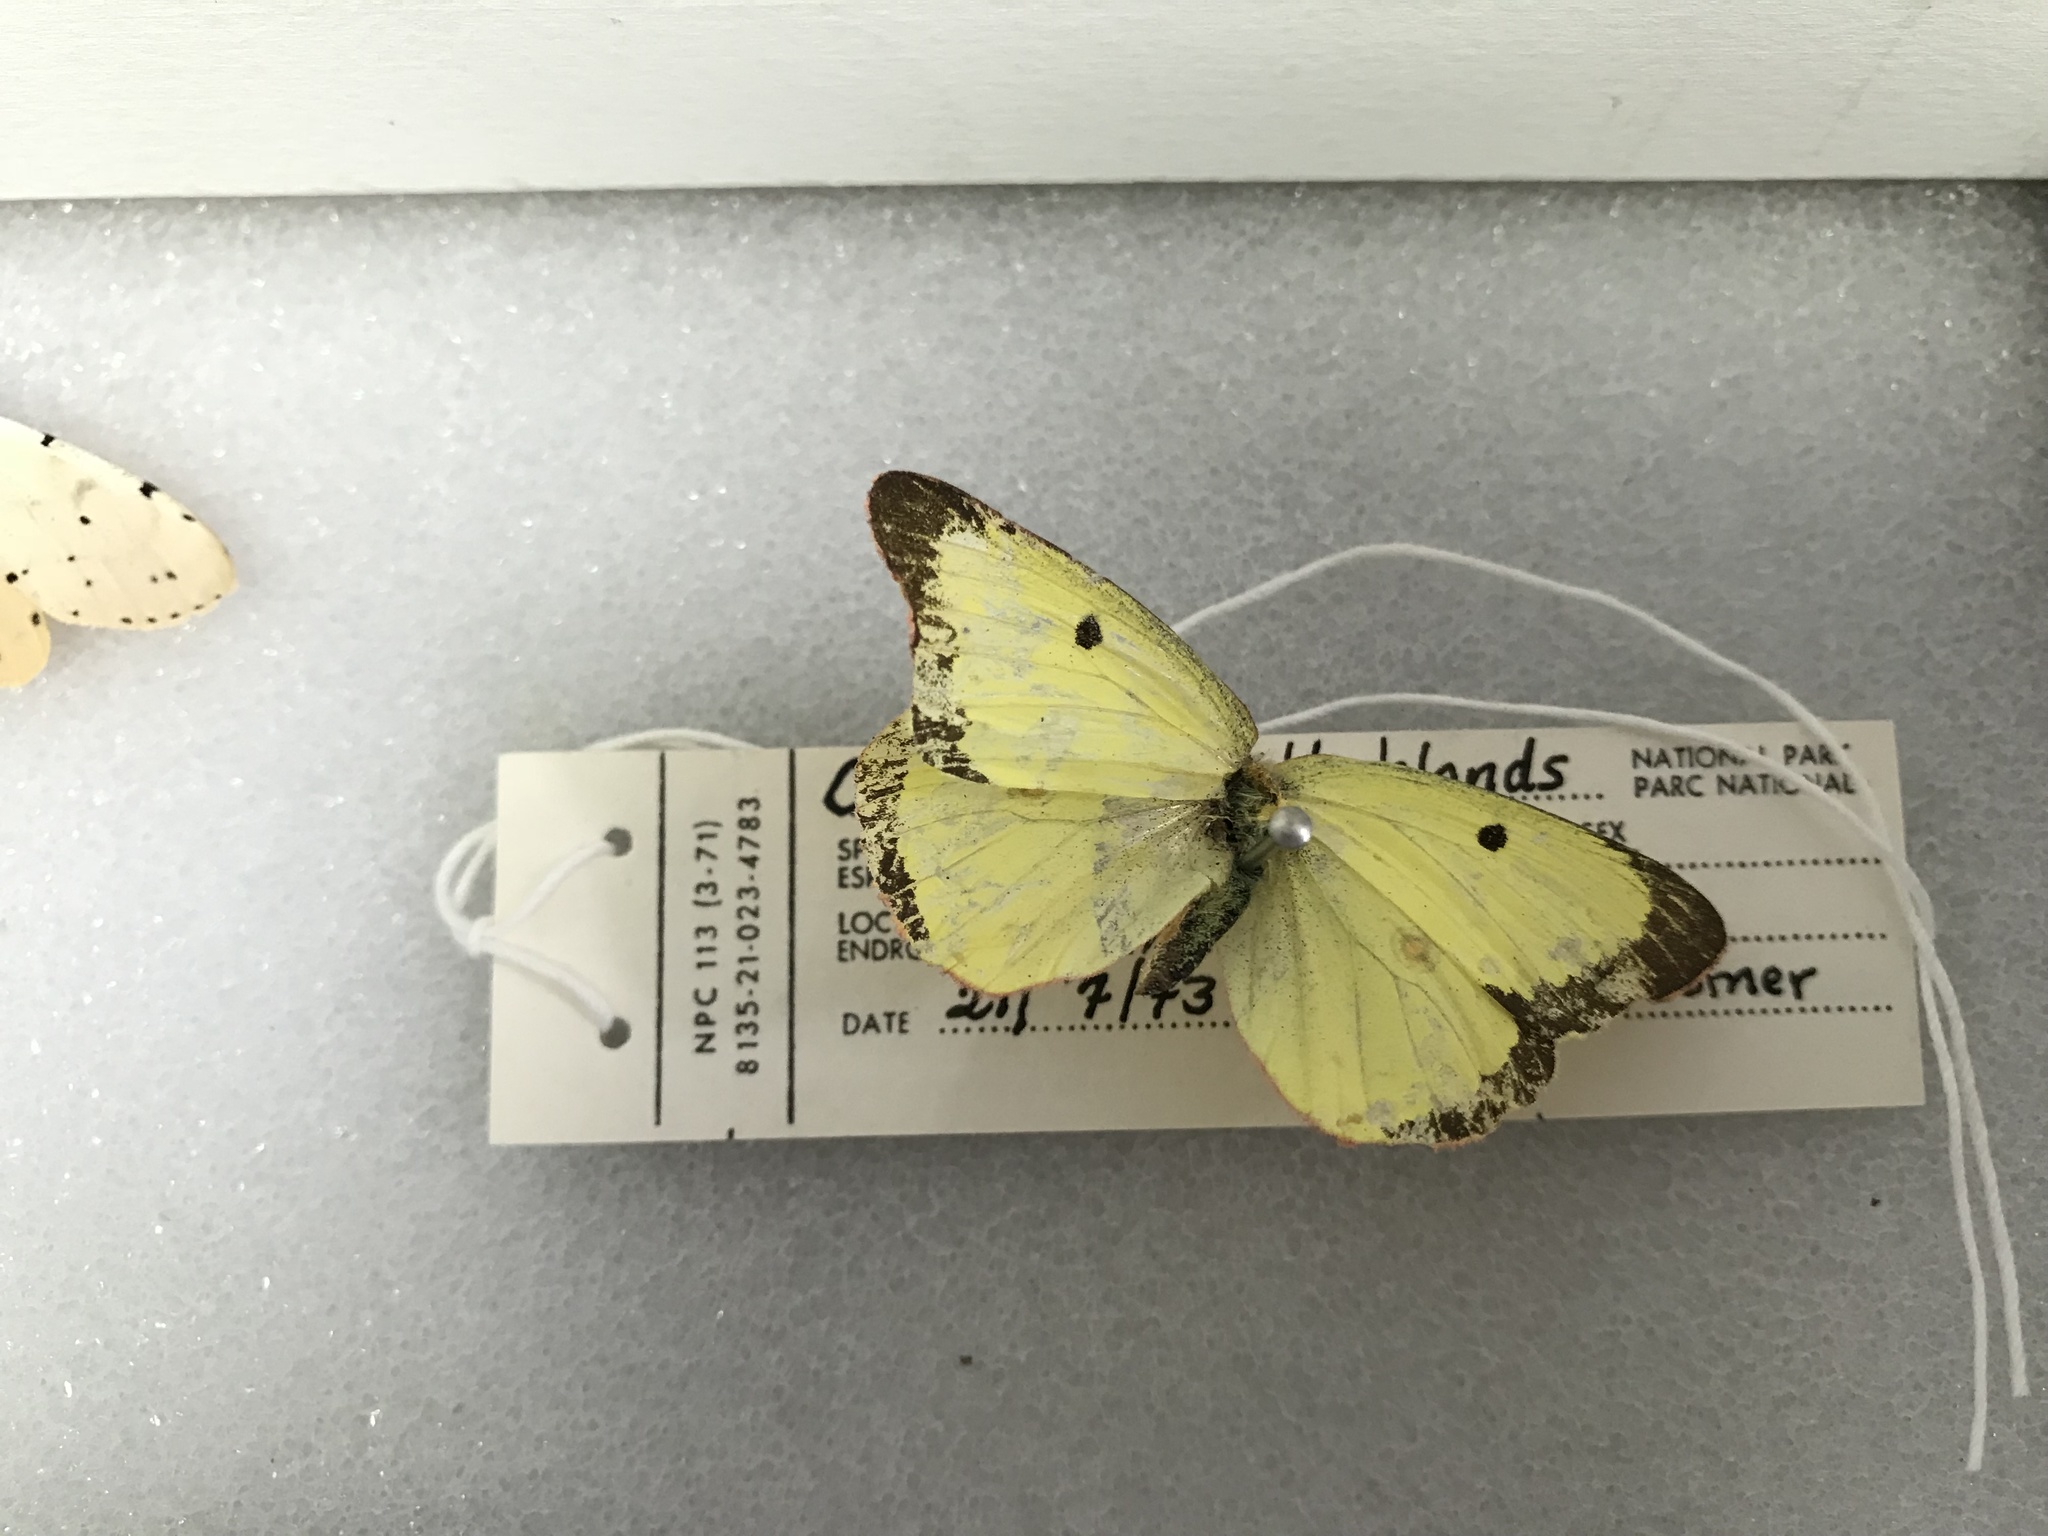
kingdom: Animalia
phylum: Arthropoda
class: Insecta
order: Lepidoptera
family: Pieridae
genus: Colias
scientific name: Colias philodice
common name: Clouded sulphur
